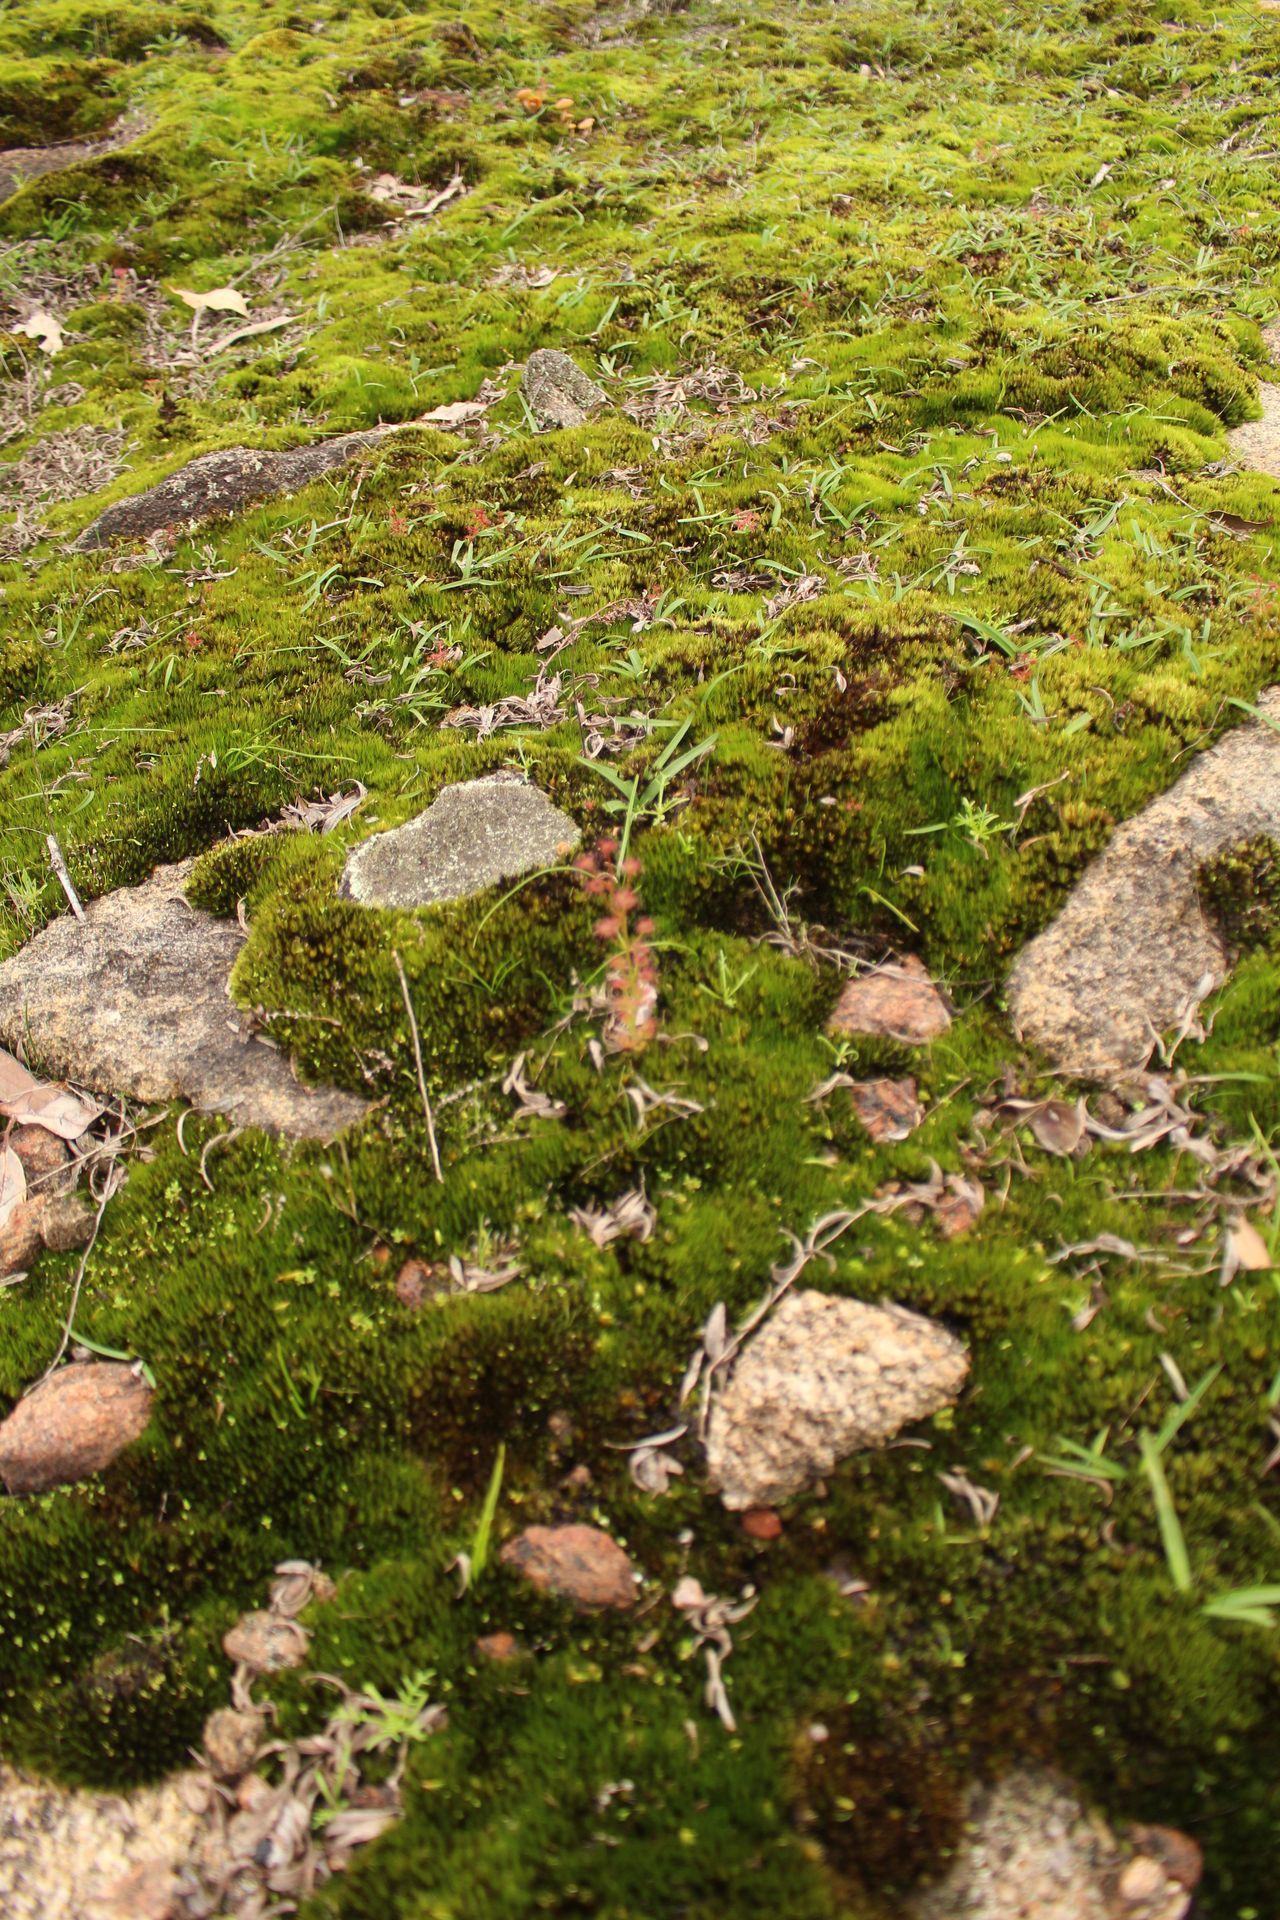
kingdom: Plantae
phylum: Tracheophyta
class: Magnoliopsida
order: Caryophyllales
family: Droseraceae
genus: Drosera
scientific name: Drosera stolonifera
